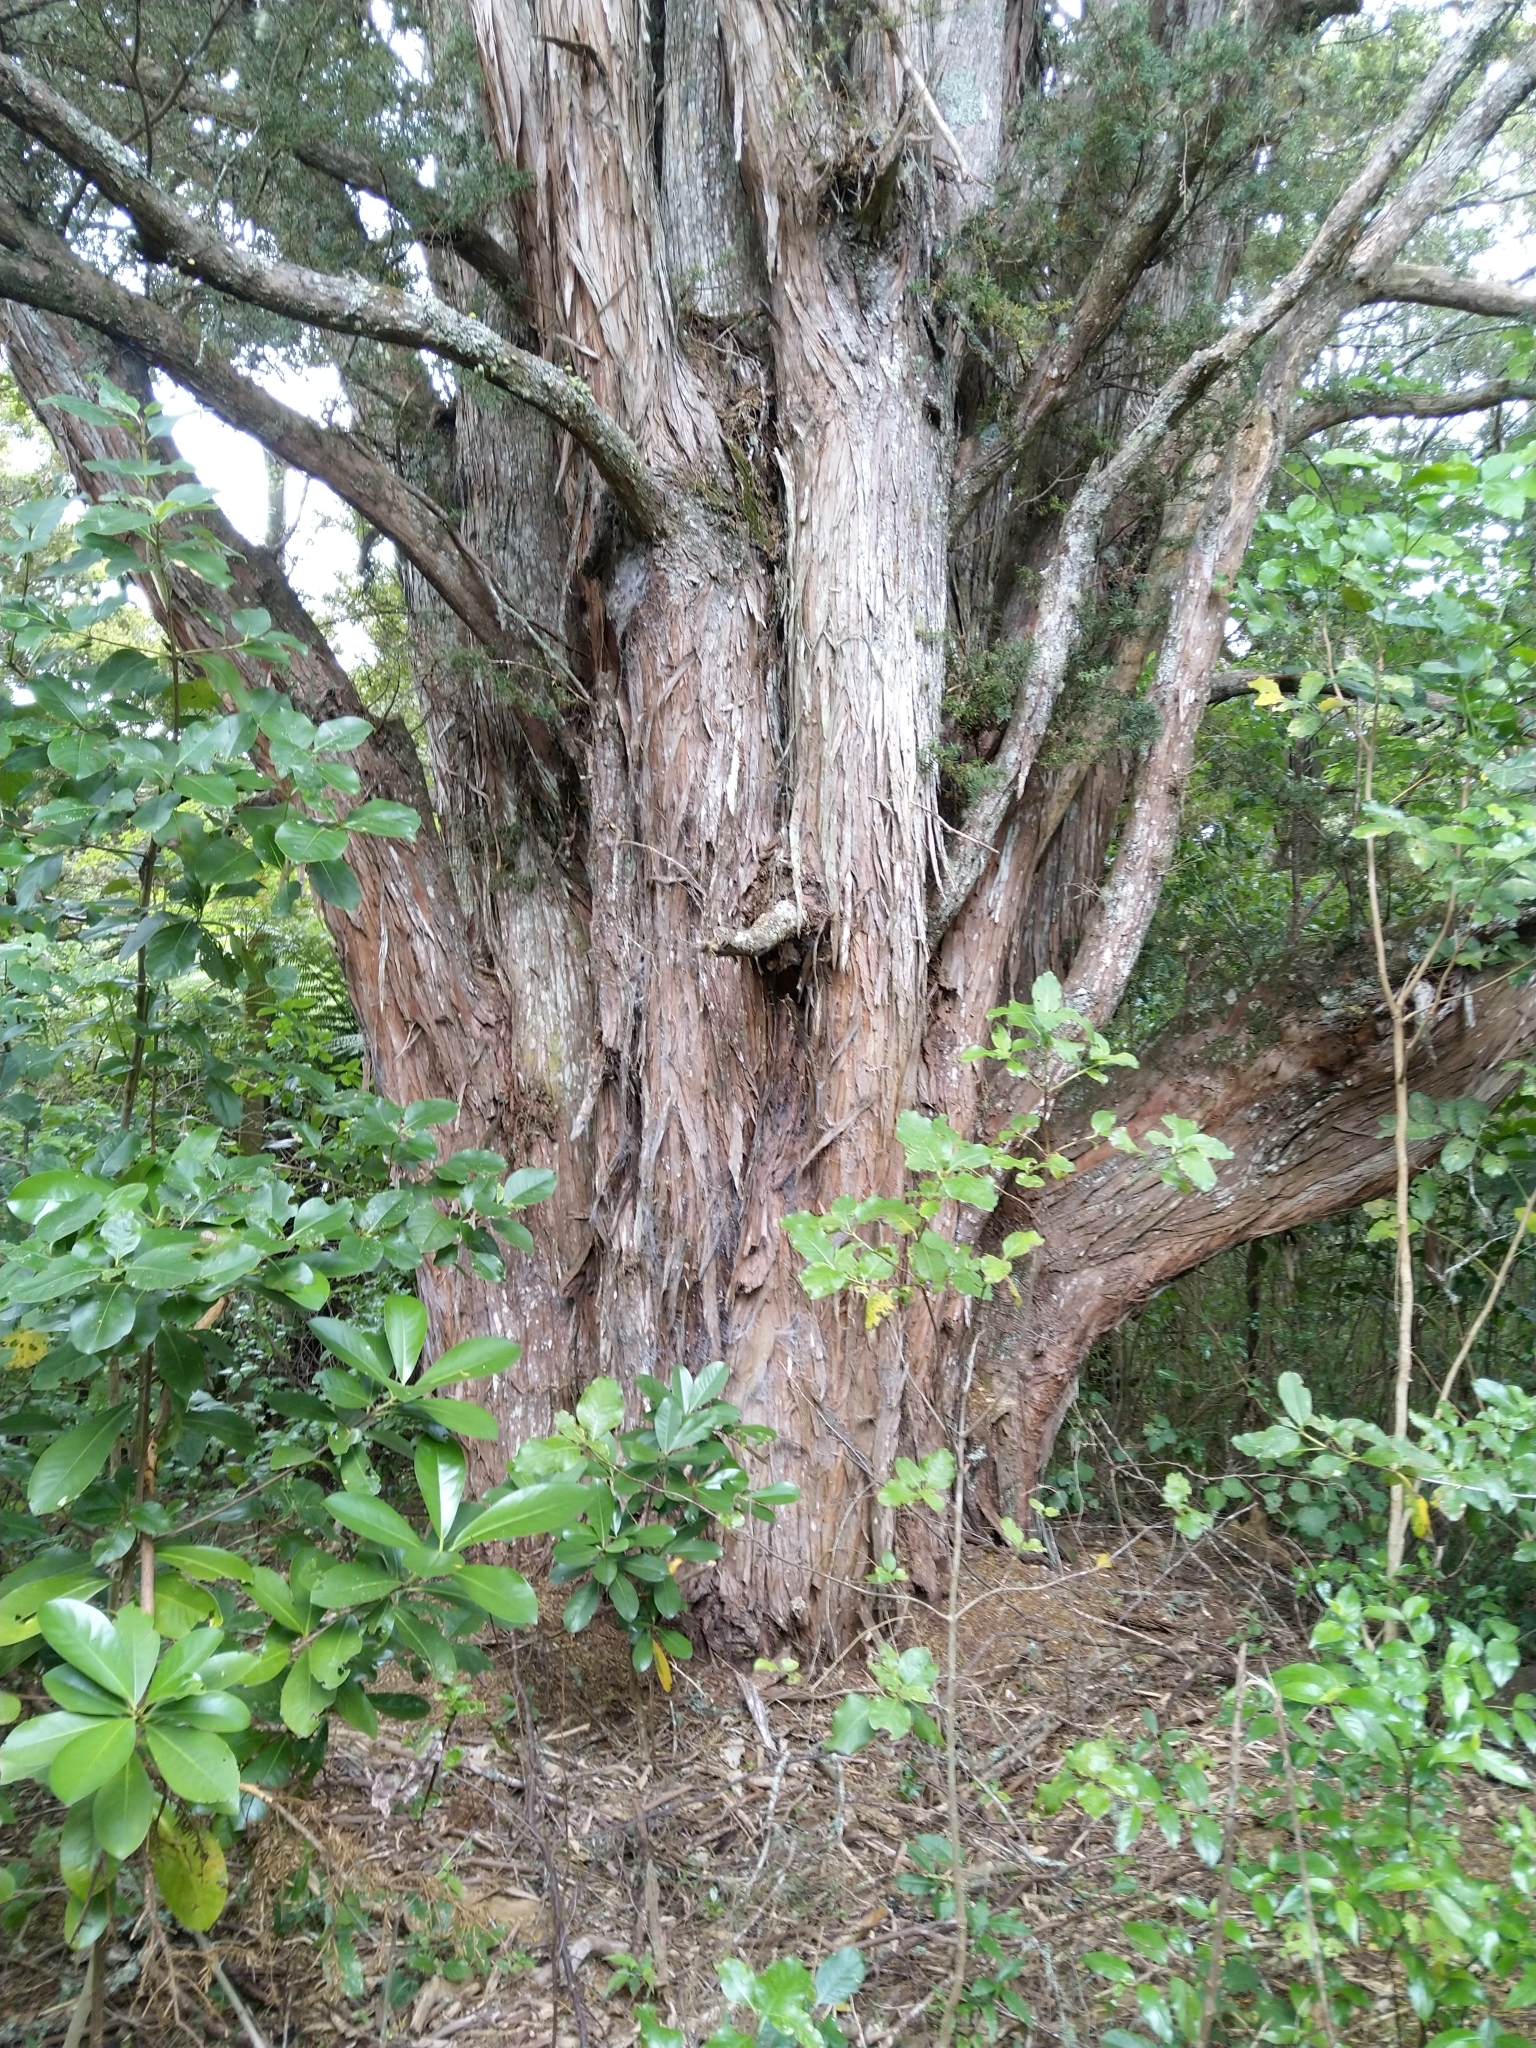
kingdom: Plantae
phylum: Tracheophyta
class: Pinopsida
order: Pinales
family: Podocarpaceae
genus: Podocarpus
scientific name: Podocarpus totara
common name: Totara
